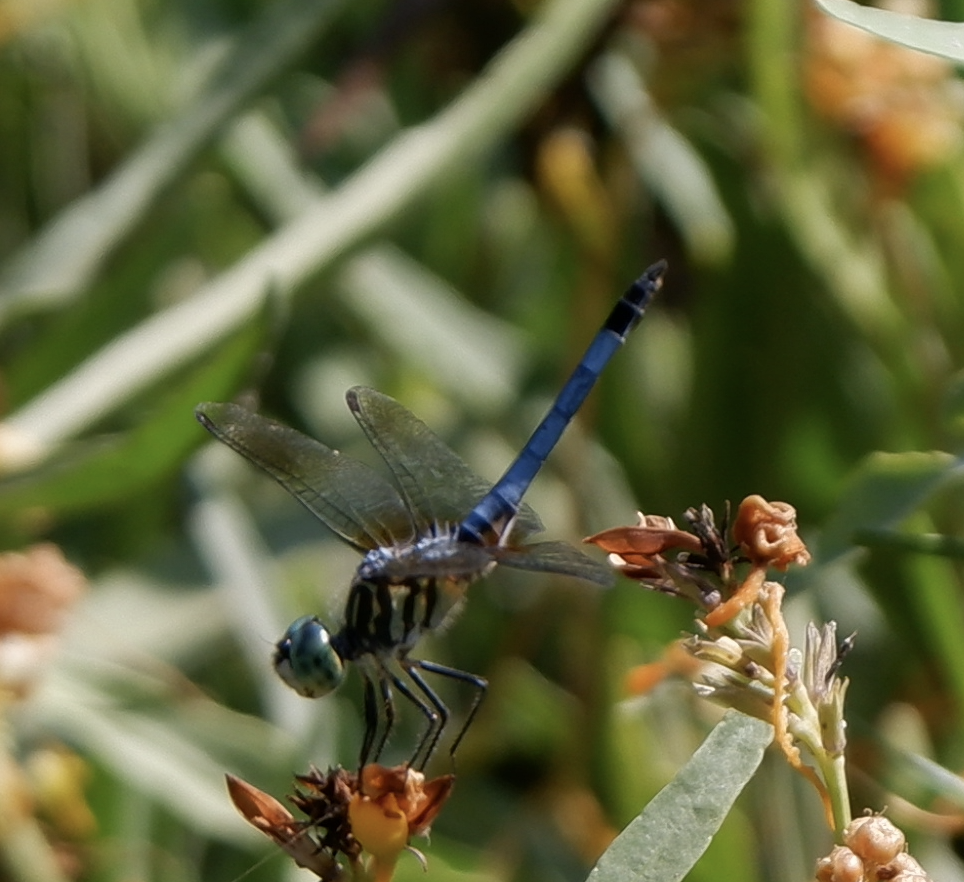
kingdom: Animalia
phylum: Arthropoda
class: Insecta
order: Odonata
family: Libellulidae
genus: Pachydiplax
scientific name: Pachydiplax longipennis
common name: Blue dasher
